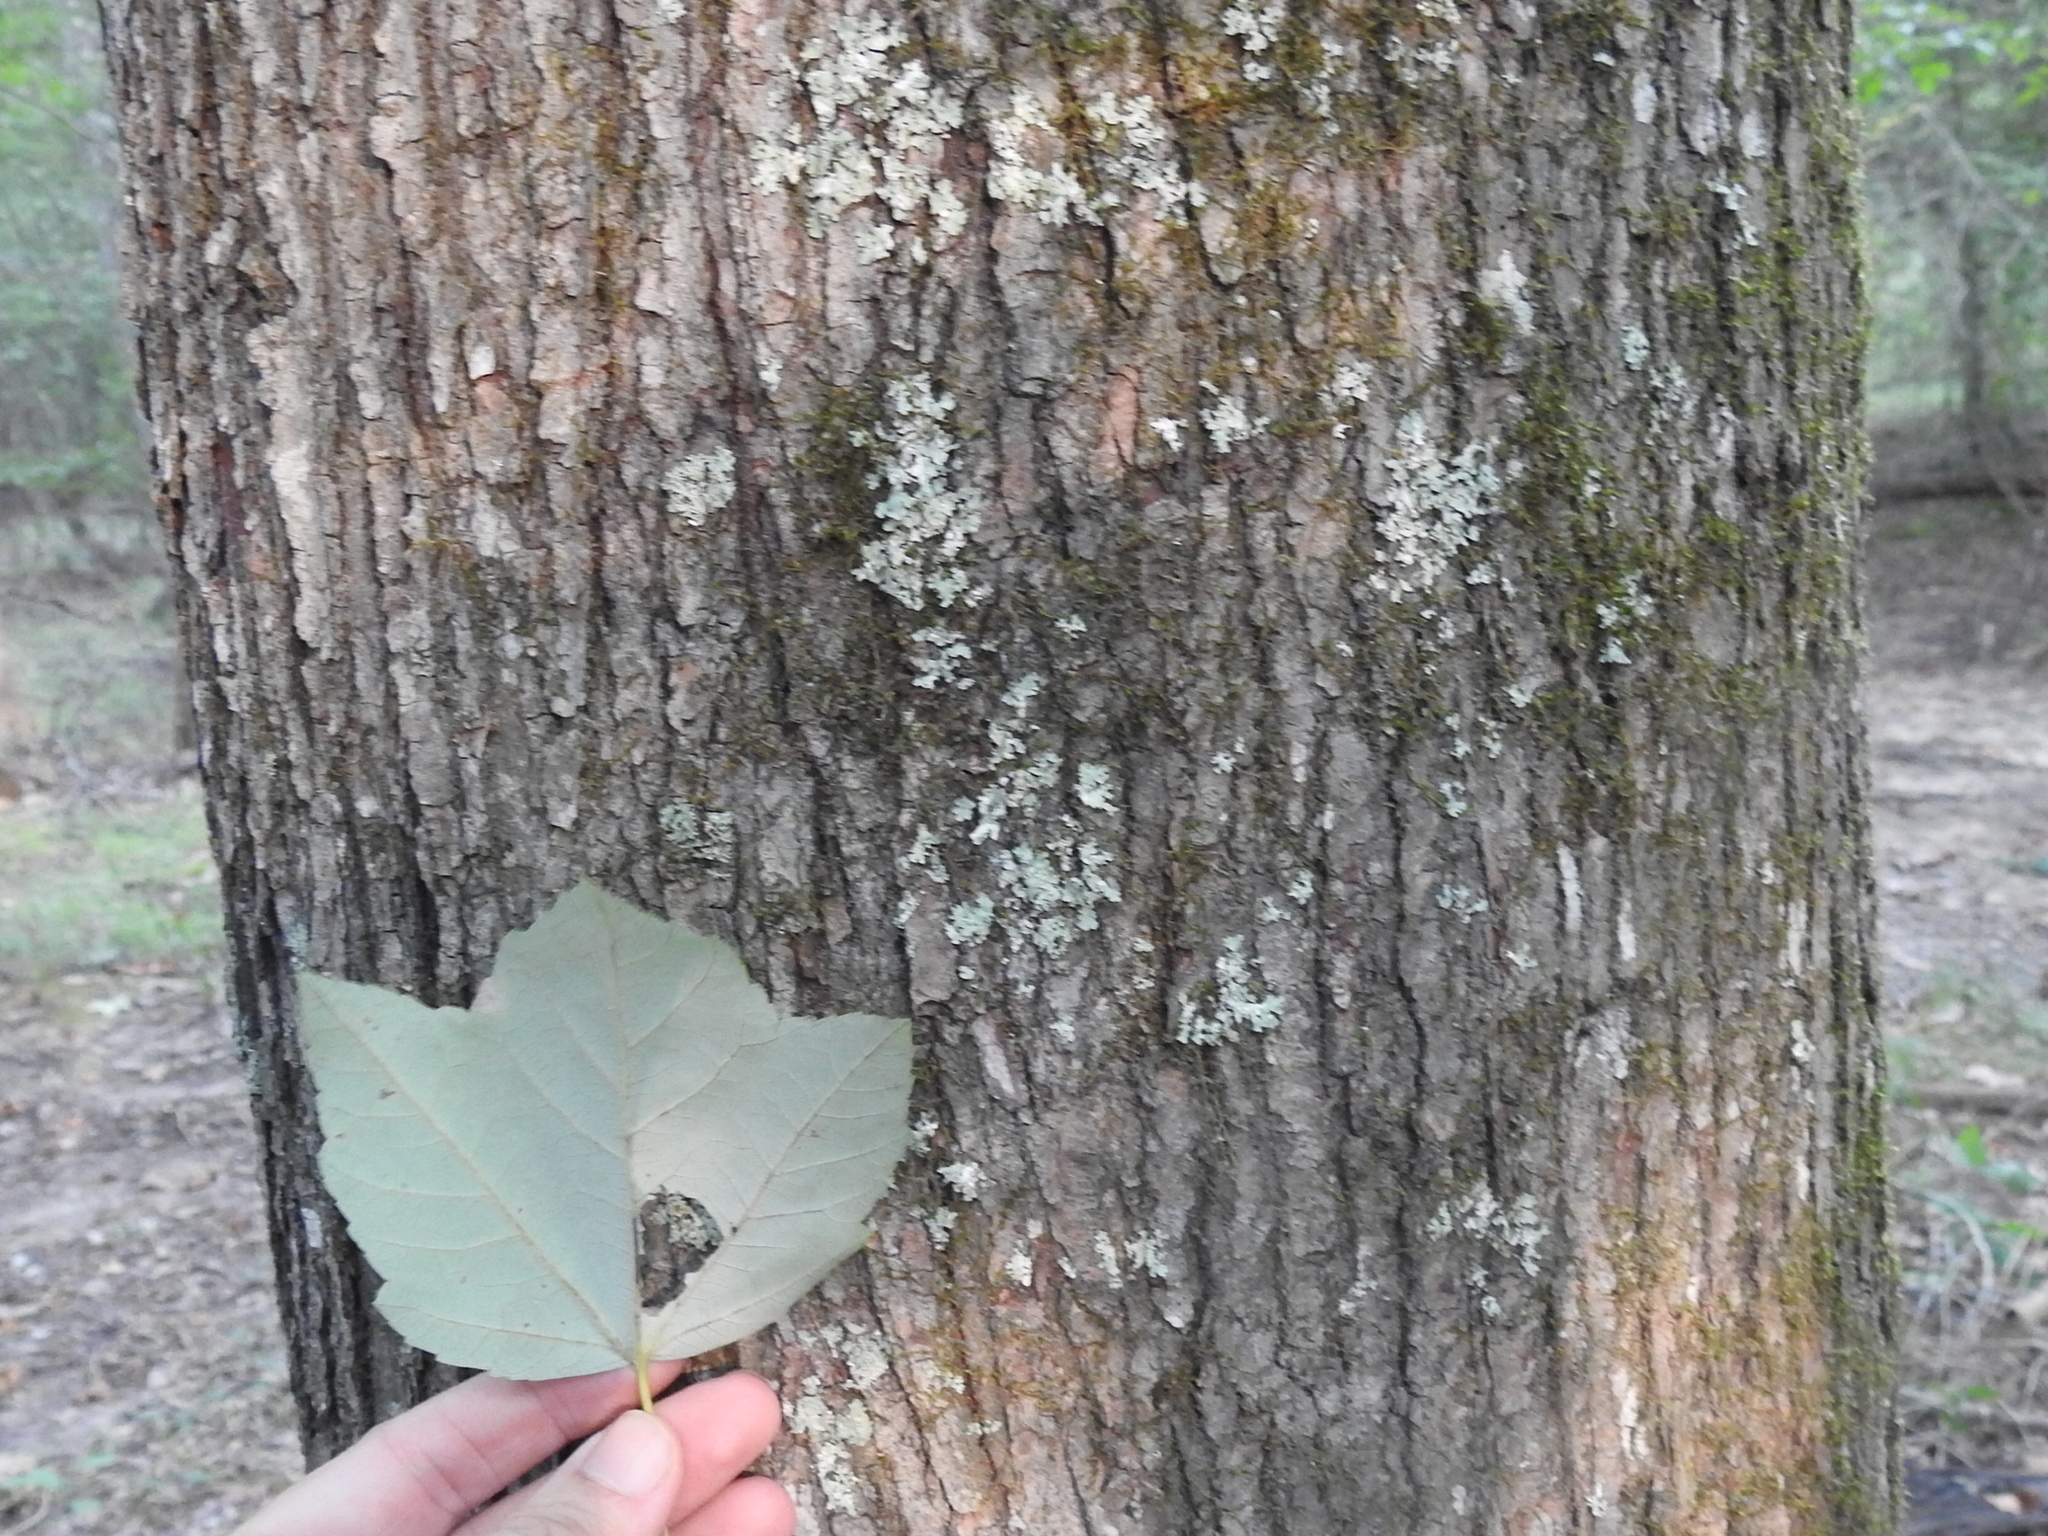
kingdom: Plantae
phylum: Tracheophyta
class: Magnoliopsida
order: Sapindales
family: Sapindaceae
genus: Acer
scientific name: Acer rubrum
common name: Red maple
